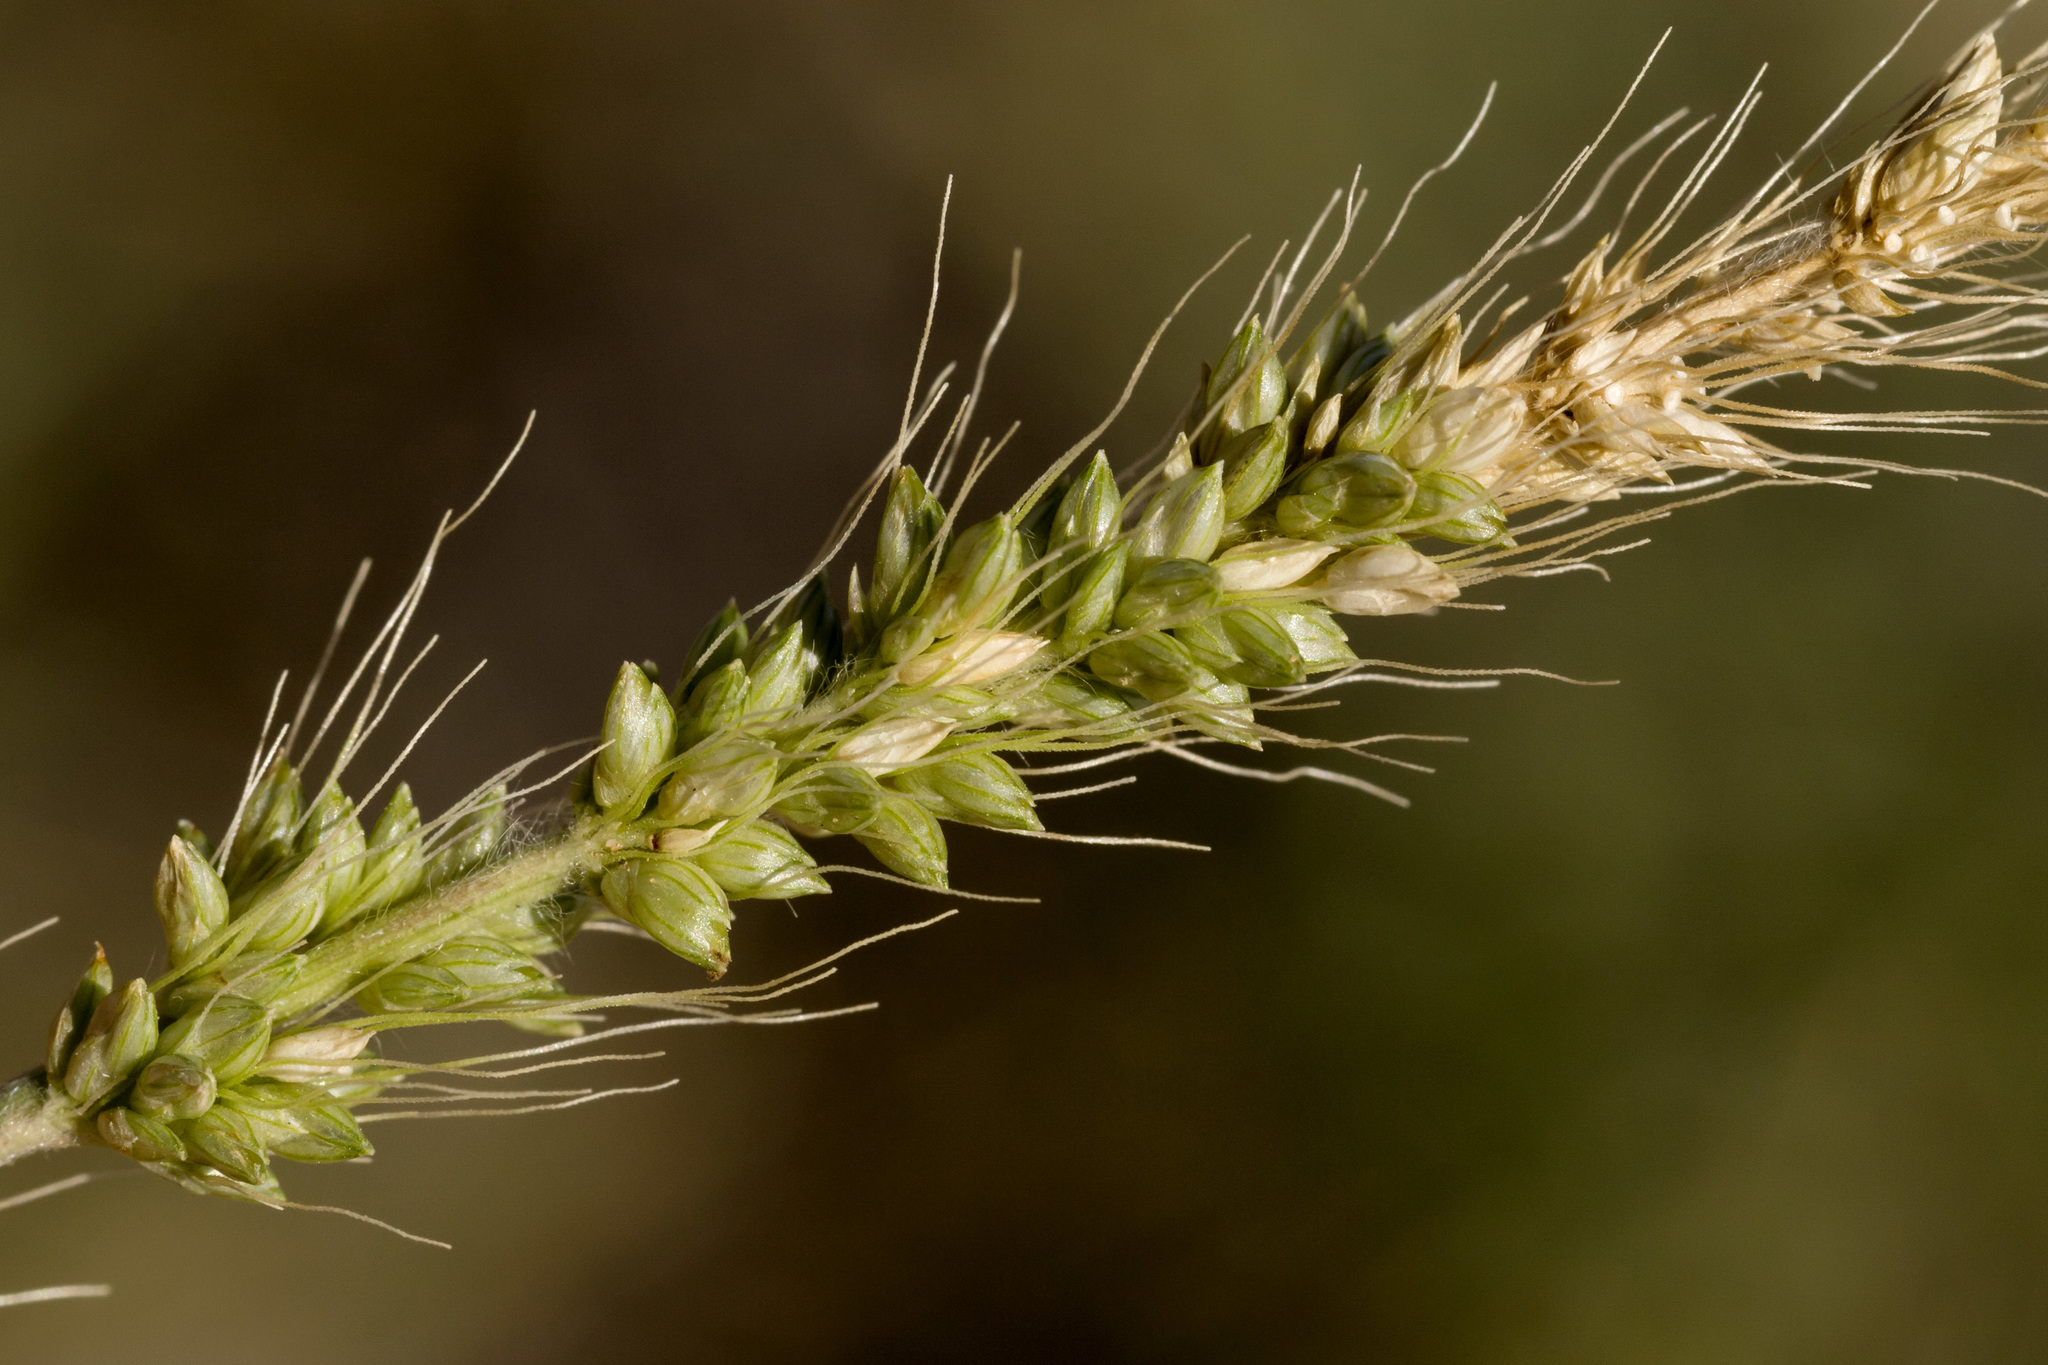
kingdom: Plantae
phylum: Tracheophyta
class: Liliopsida
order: Poales
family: Poaceae
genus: Setaria
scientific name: Setaria leucopila
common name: Plains bristle grass
